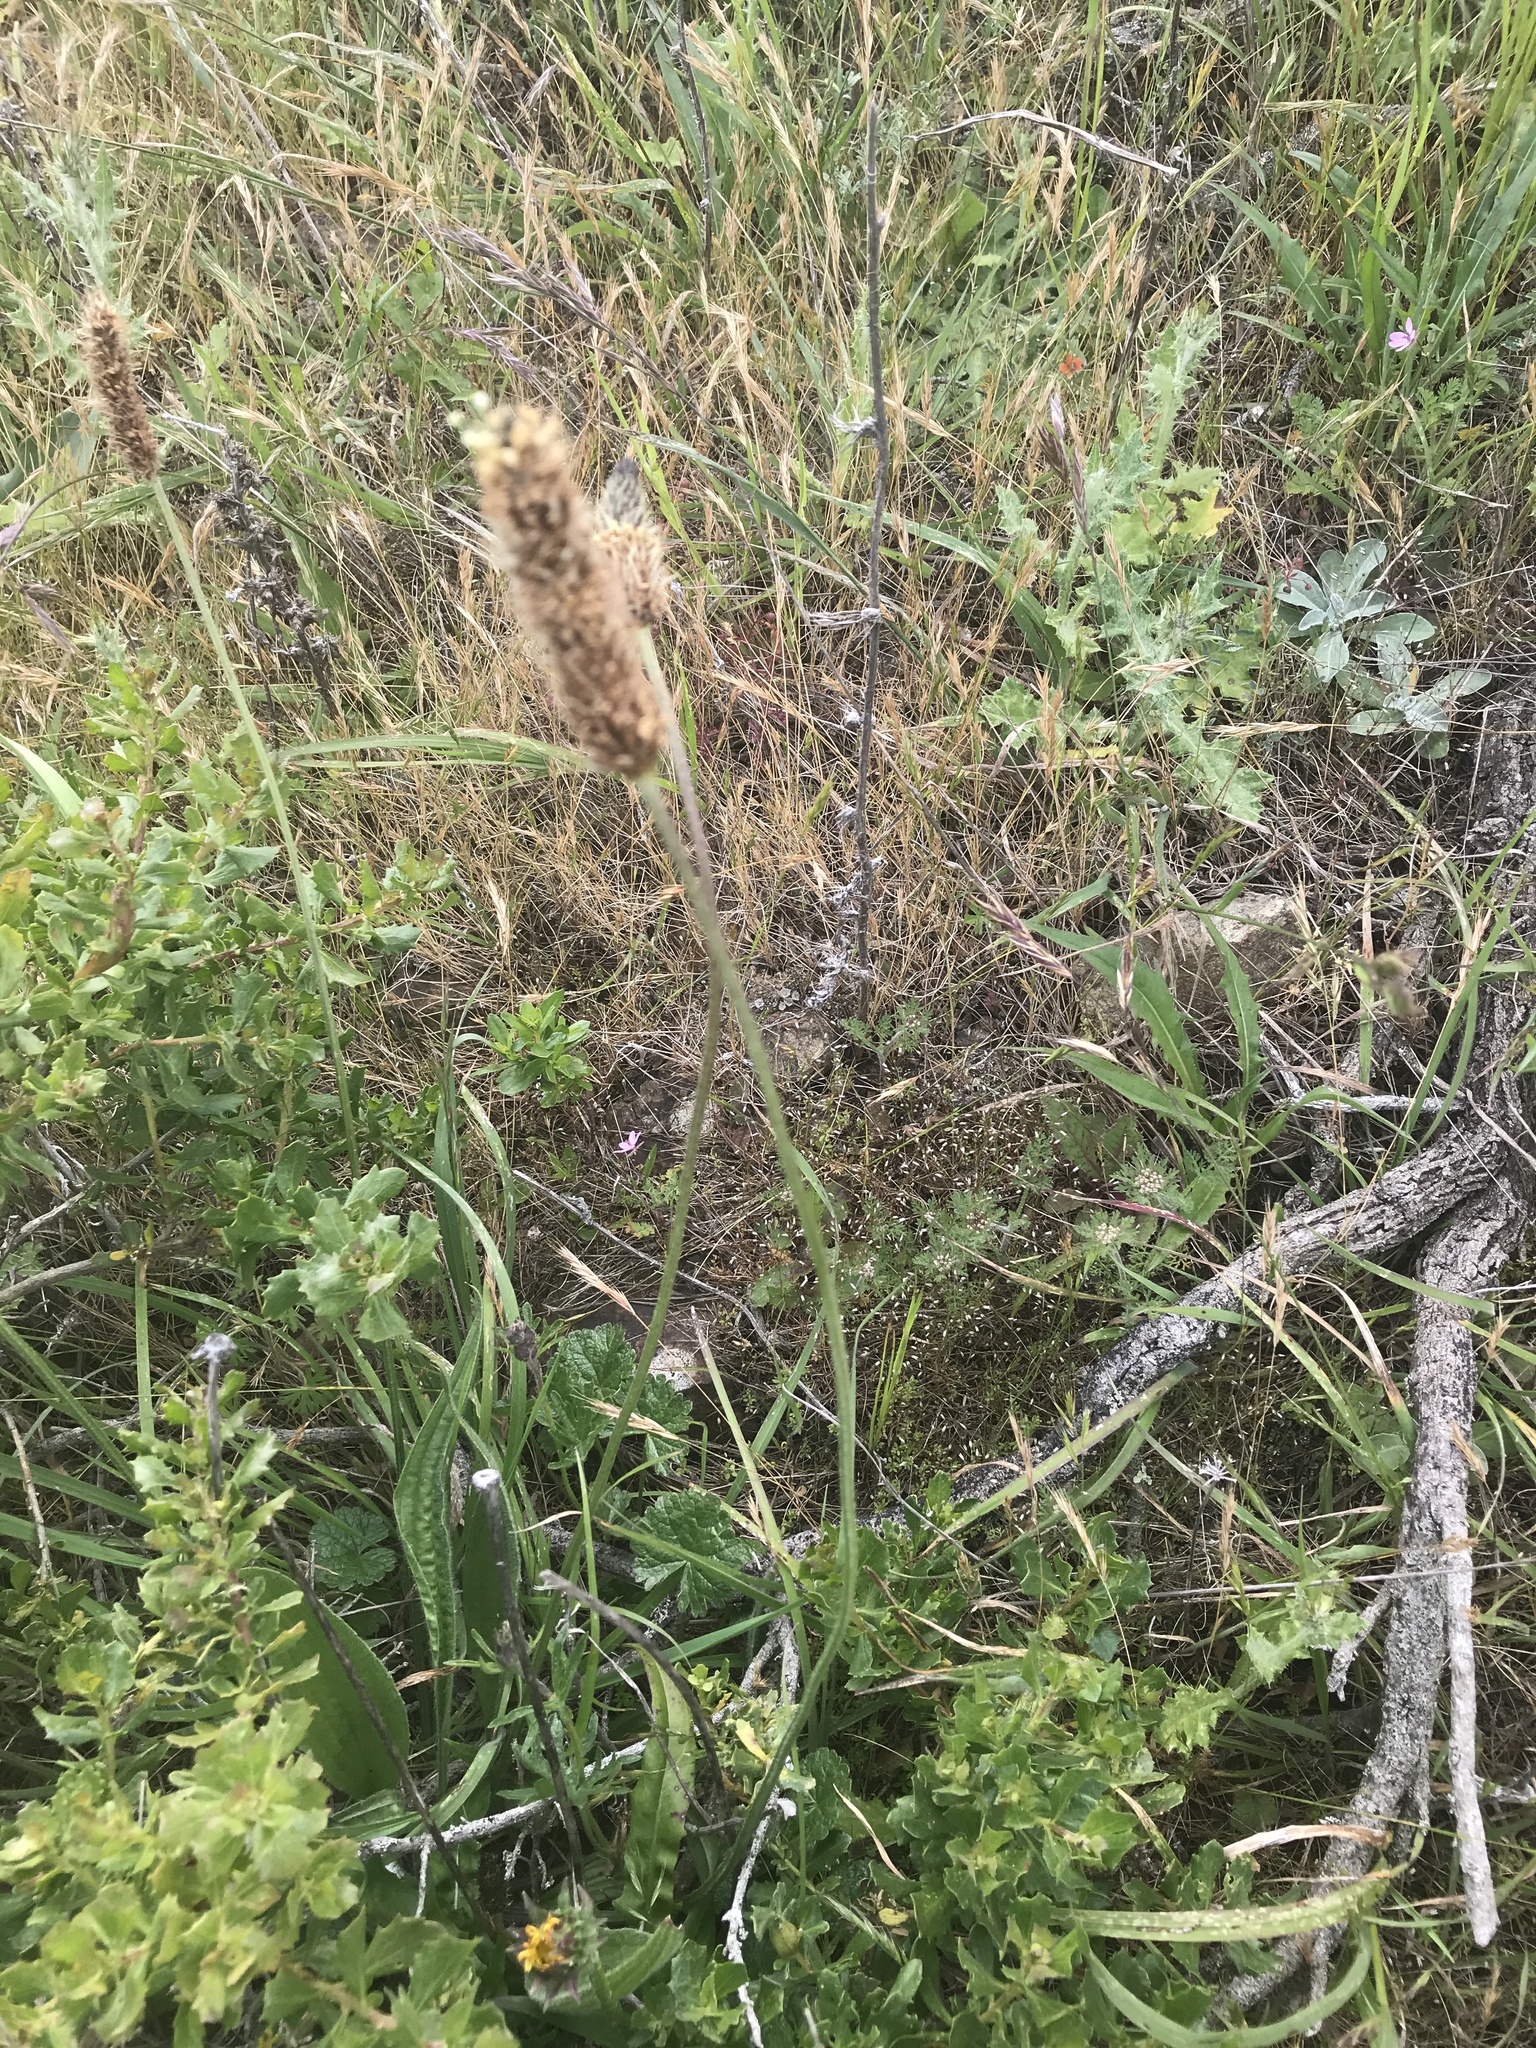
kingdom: Plantae
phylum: Tracheophyta
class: Magnoliopsida
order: Lamiales
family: Plantaginaceae
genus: Plantago
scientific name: Plantago lanceolata
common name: Ribwort plantain
